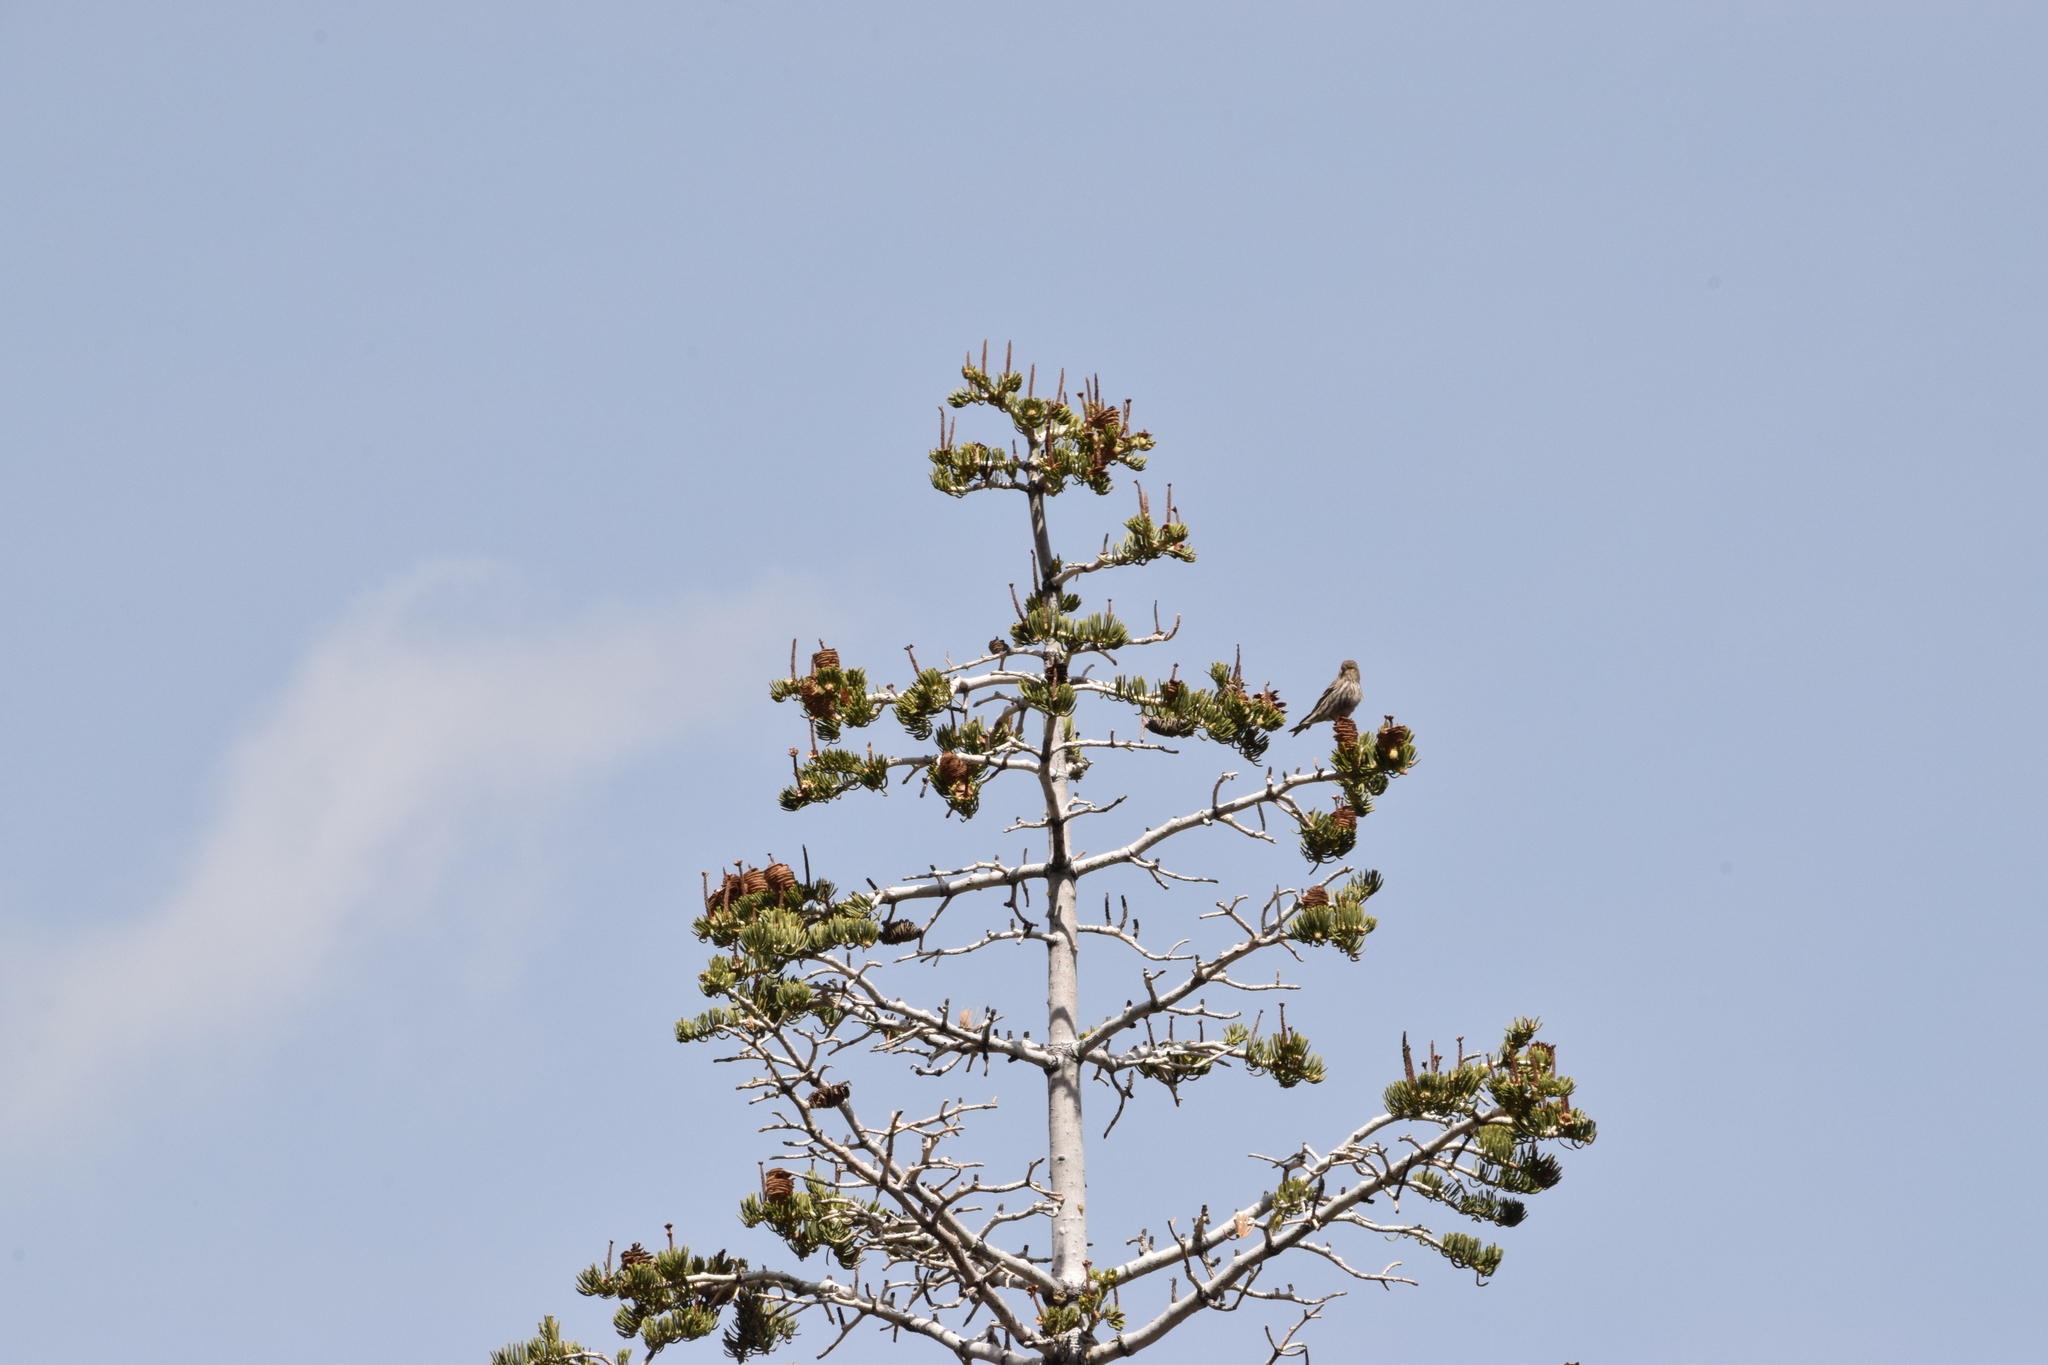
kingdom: Animalia
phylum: Chordata
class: Aves
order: Passeriformes
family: Fringillidae
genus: Spinus
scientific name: Spinus pinus
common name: Pine siskin
